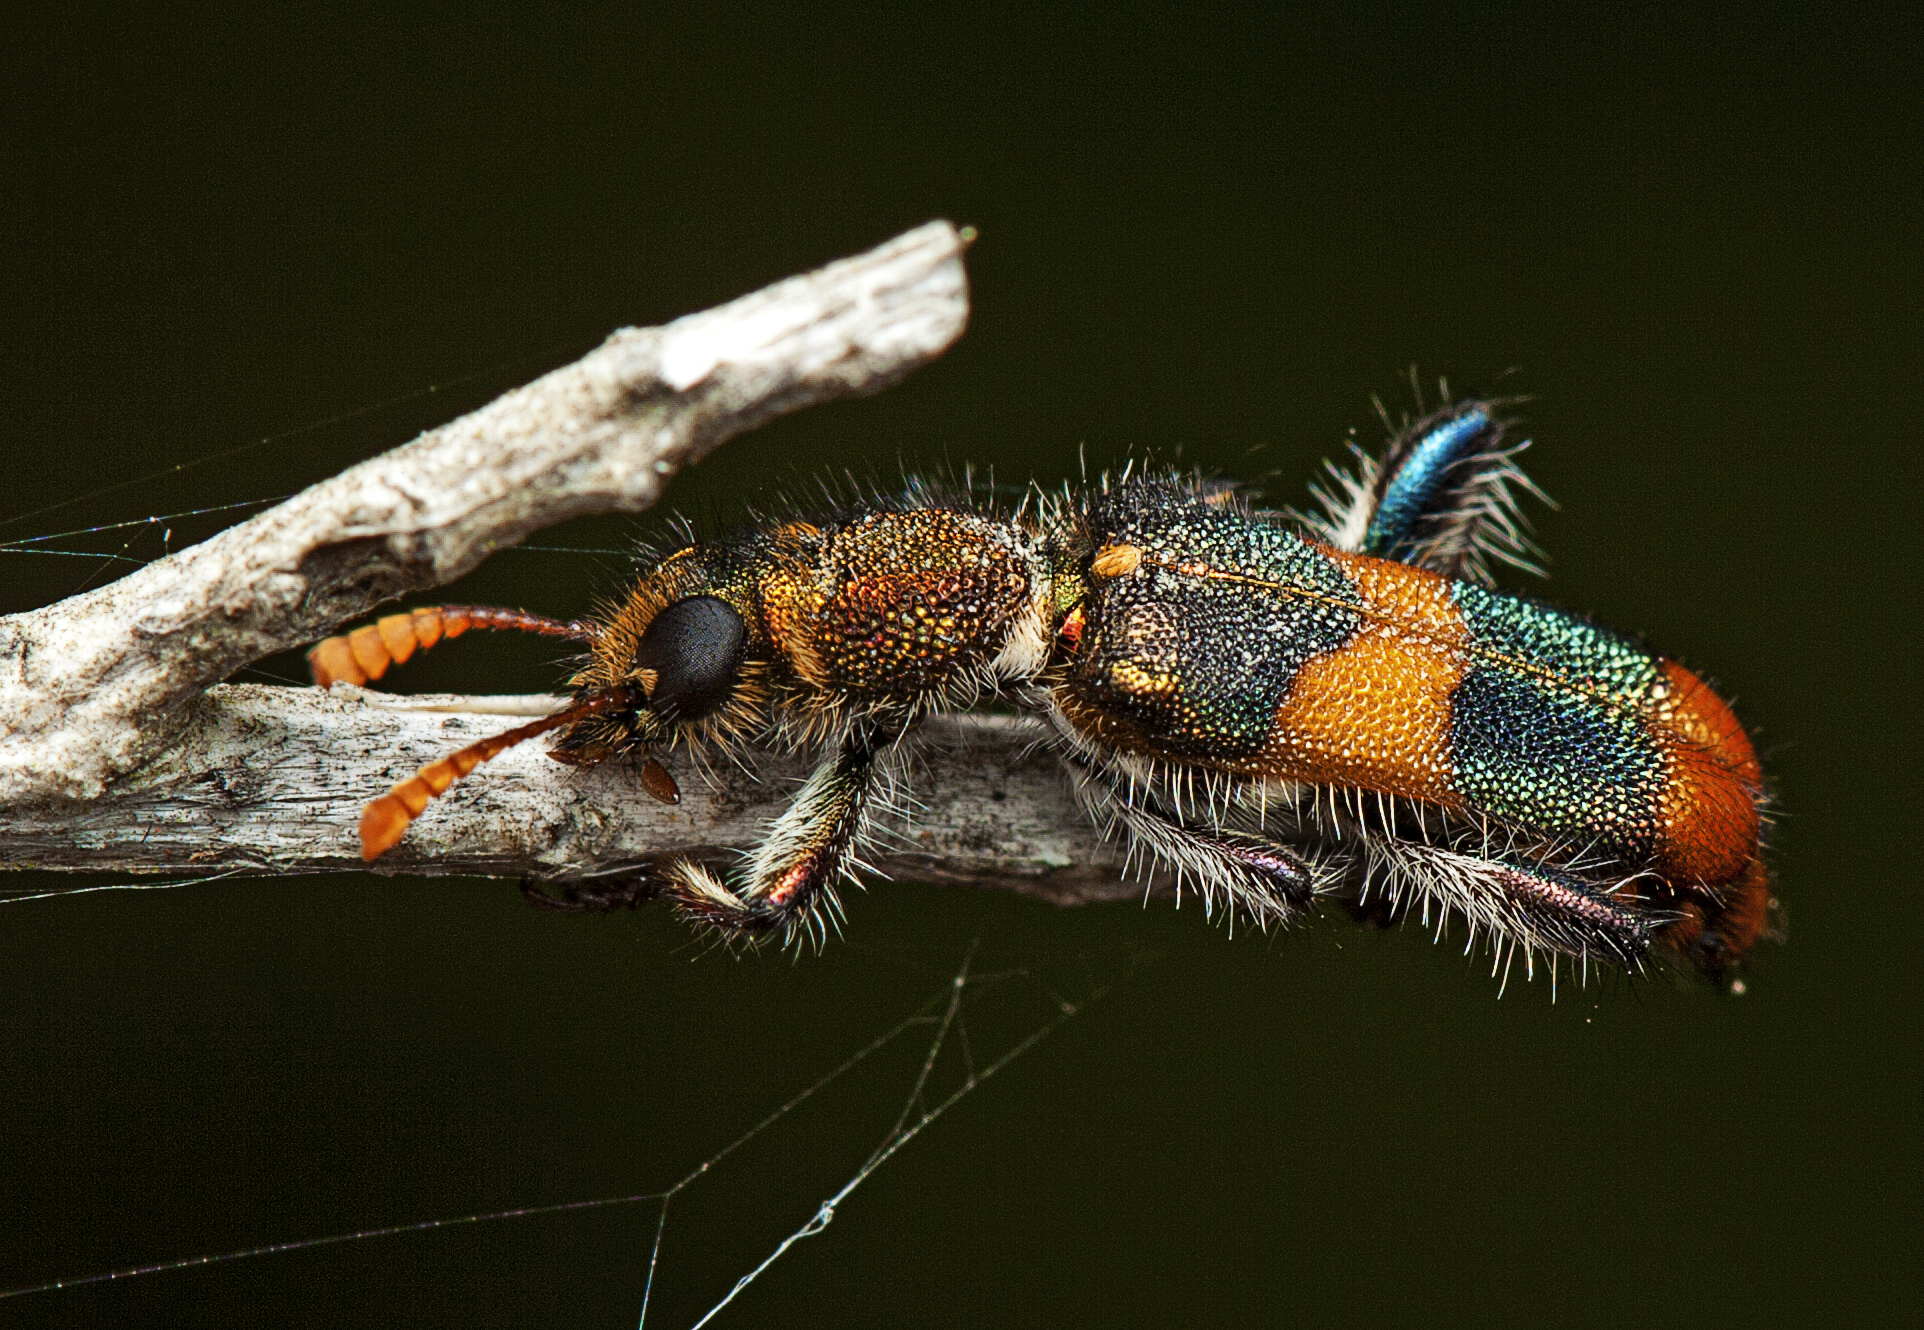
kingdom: Animalia
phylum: Arthropoda
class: Insecta
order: Coleoptera
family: Cleridae
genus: Eleale
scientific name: Eleale
